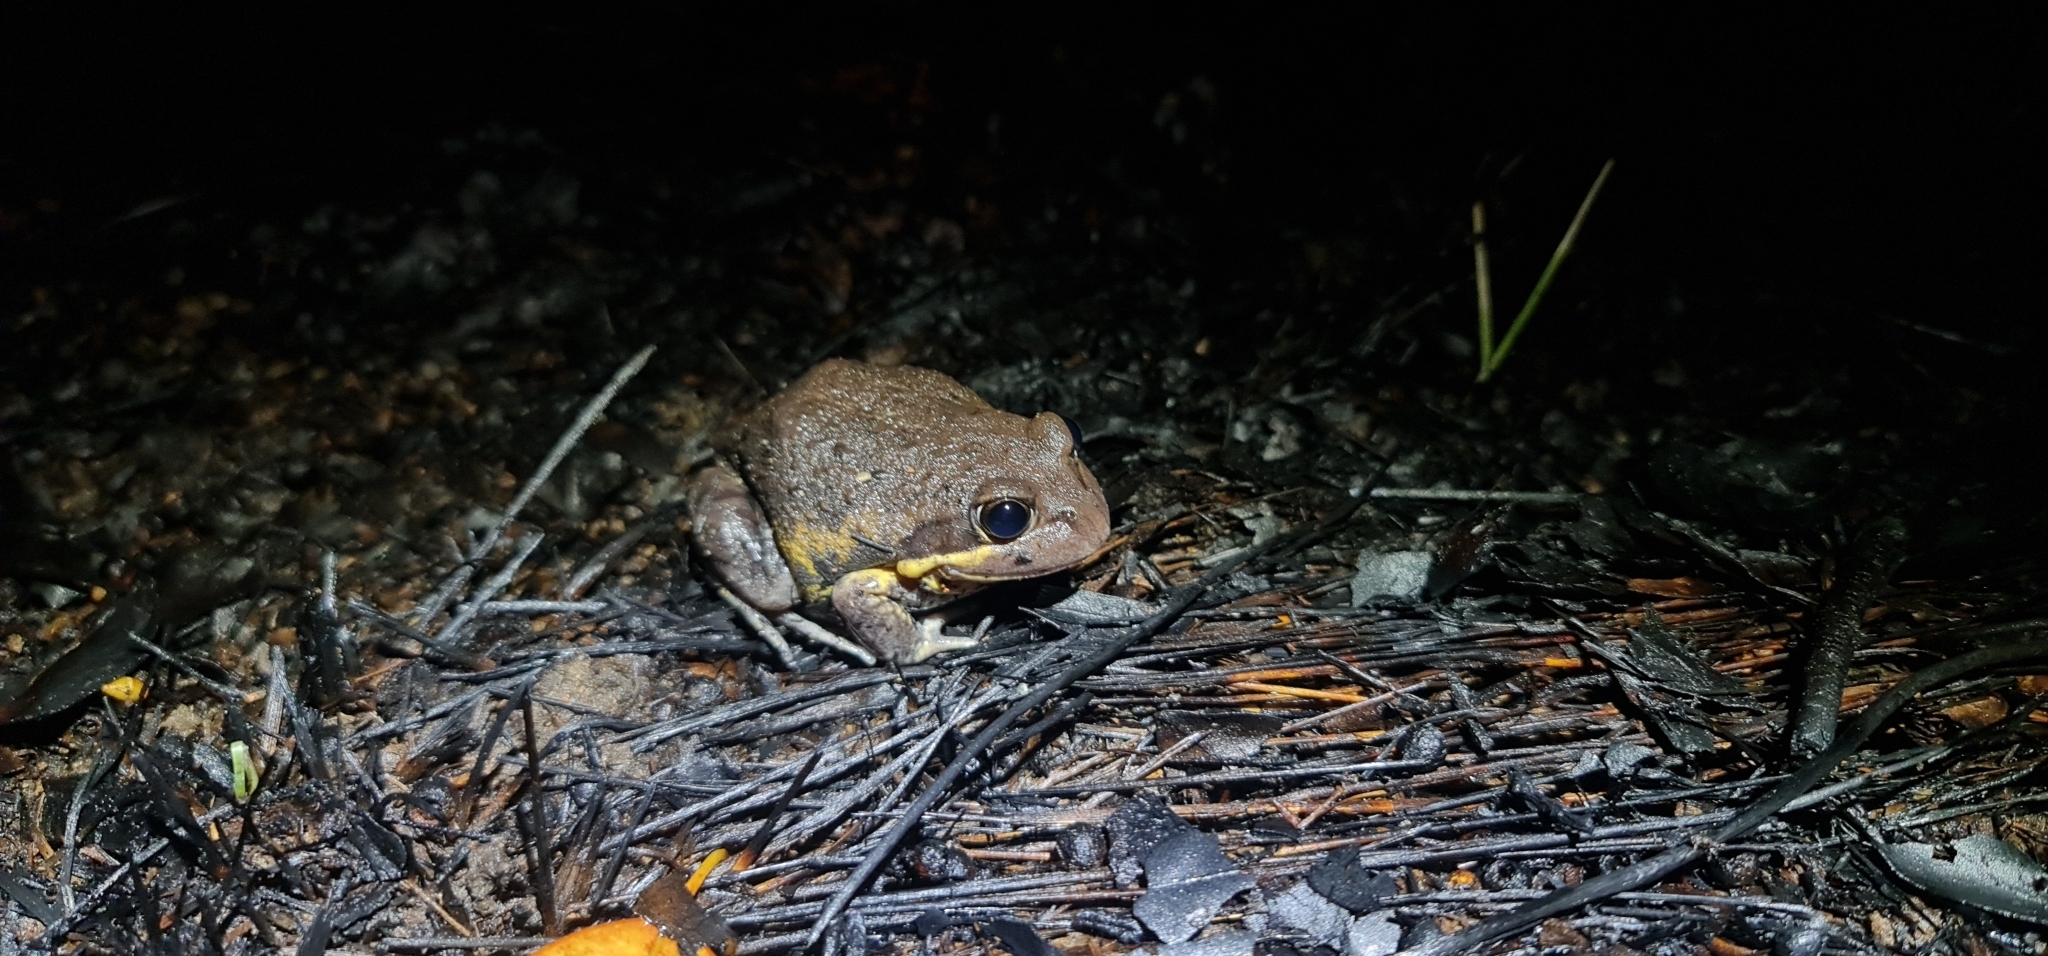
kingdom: Animalia
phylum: Chordata
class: Amphibia
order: Anura
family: Limnodynastidae
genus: Limnodynastes
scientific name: Limnodynastes terraereginae
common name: Northern banjo frog
